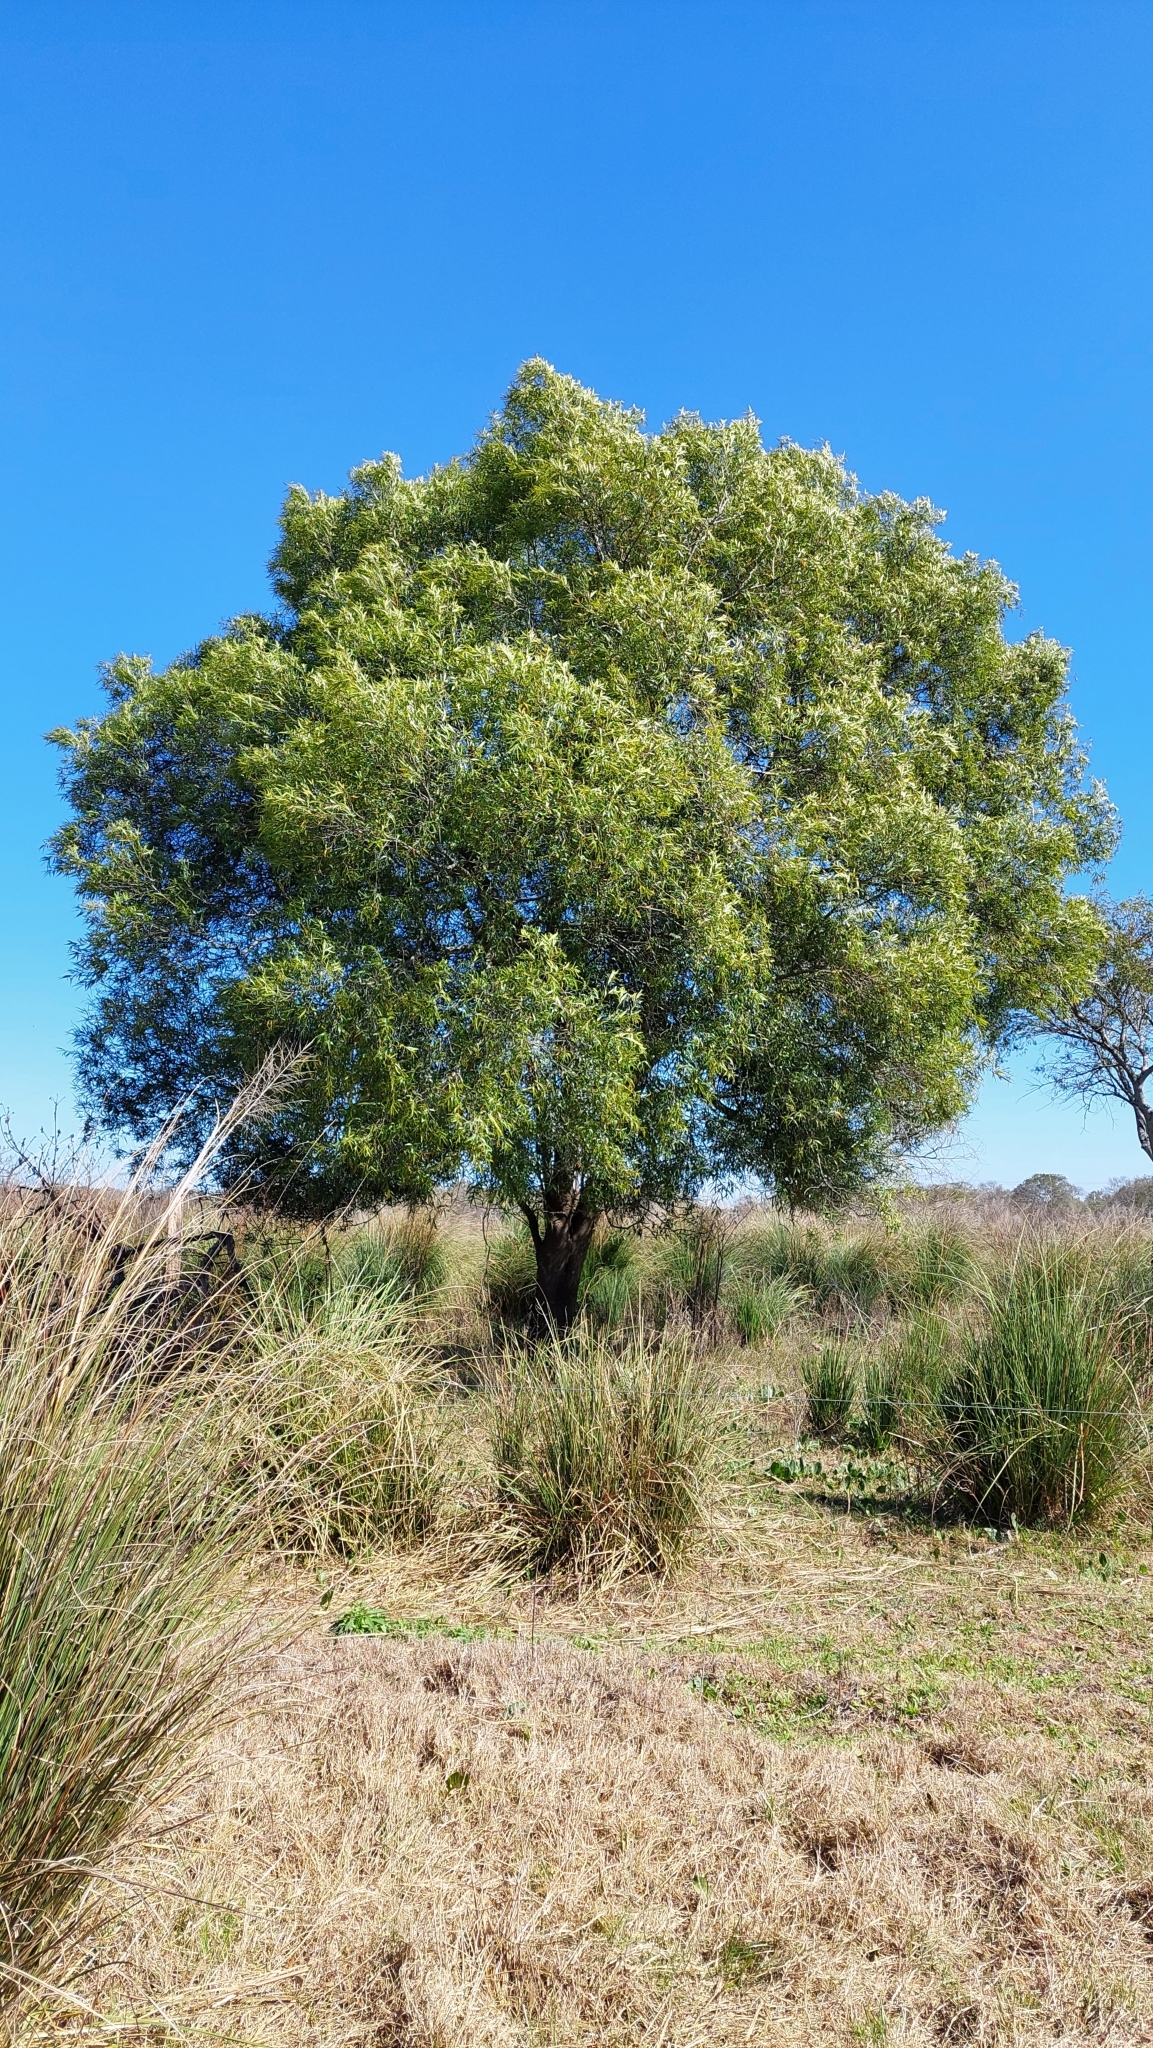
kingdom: Plantae
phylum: Tracheophyta
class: Magnoliopsida
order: Laurales
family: Lauraceae
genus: Nectandra
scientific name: Nectandra angustifolia
